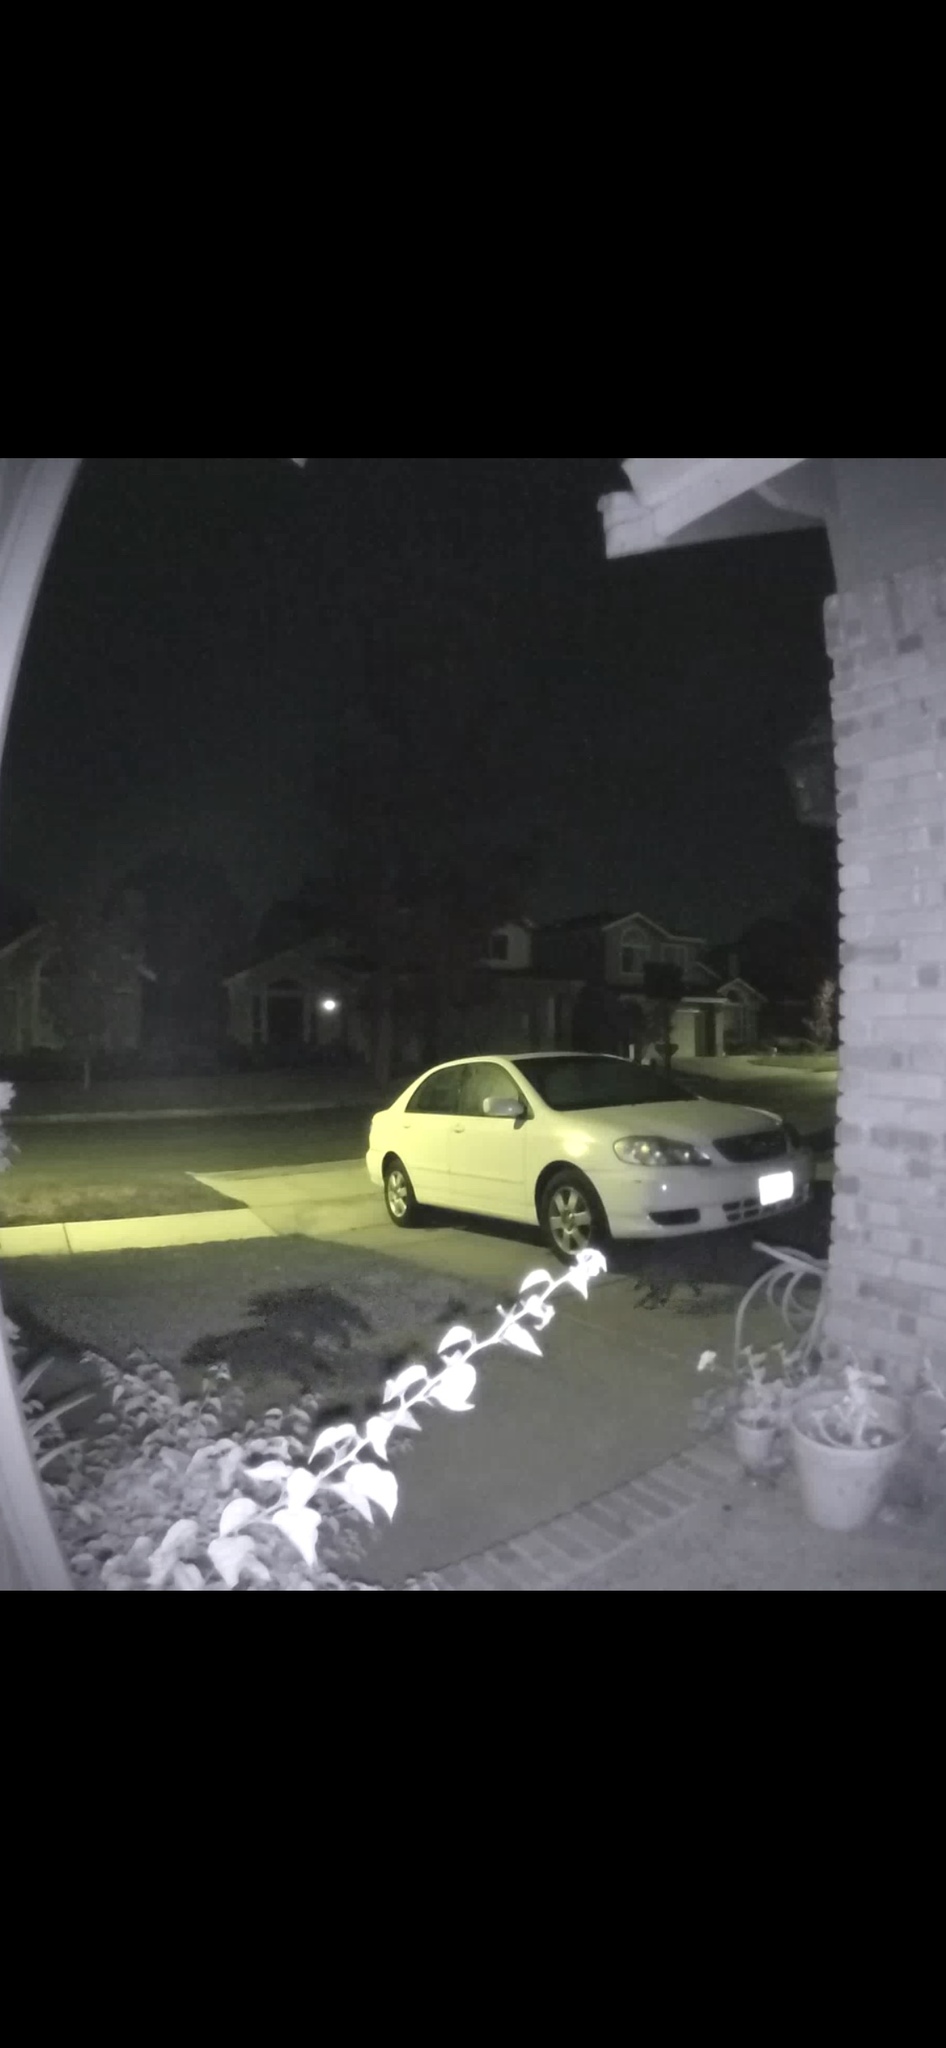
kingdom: Animalia
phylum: Chordata
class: Mammalia
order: Carnivora
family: Procyonidae
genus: Procyon
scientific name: Procyon lotor
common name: Raccoon
